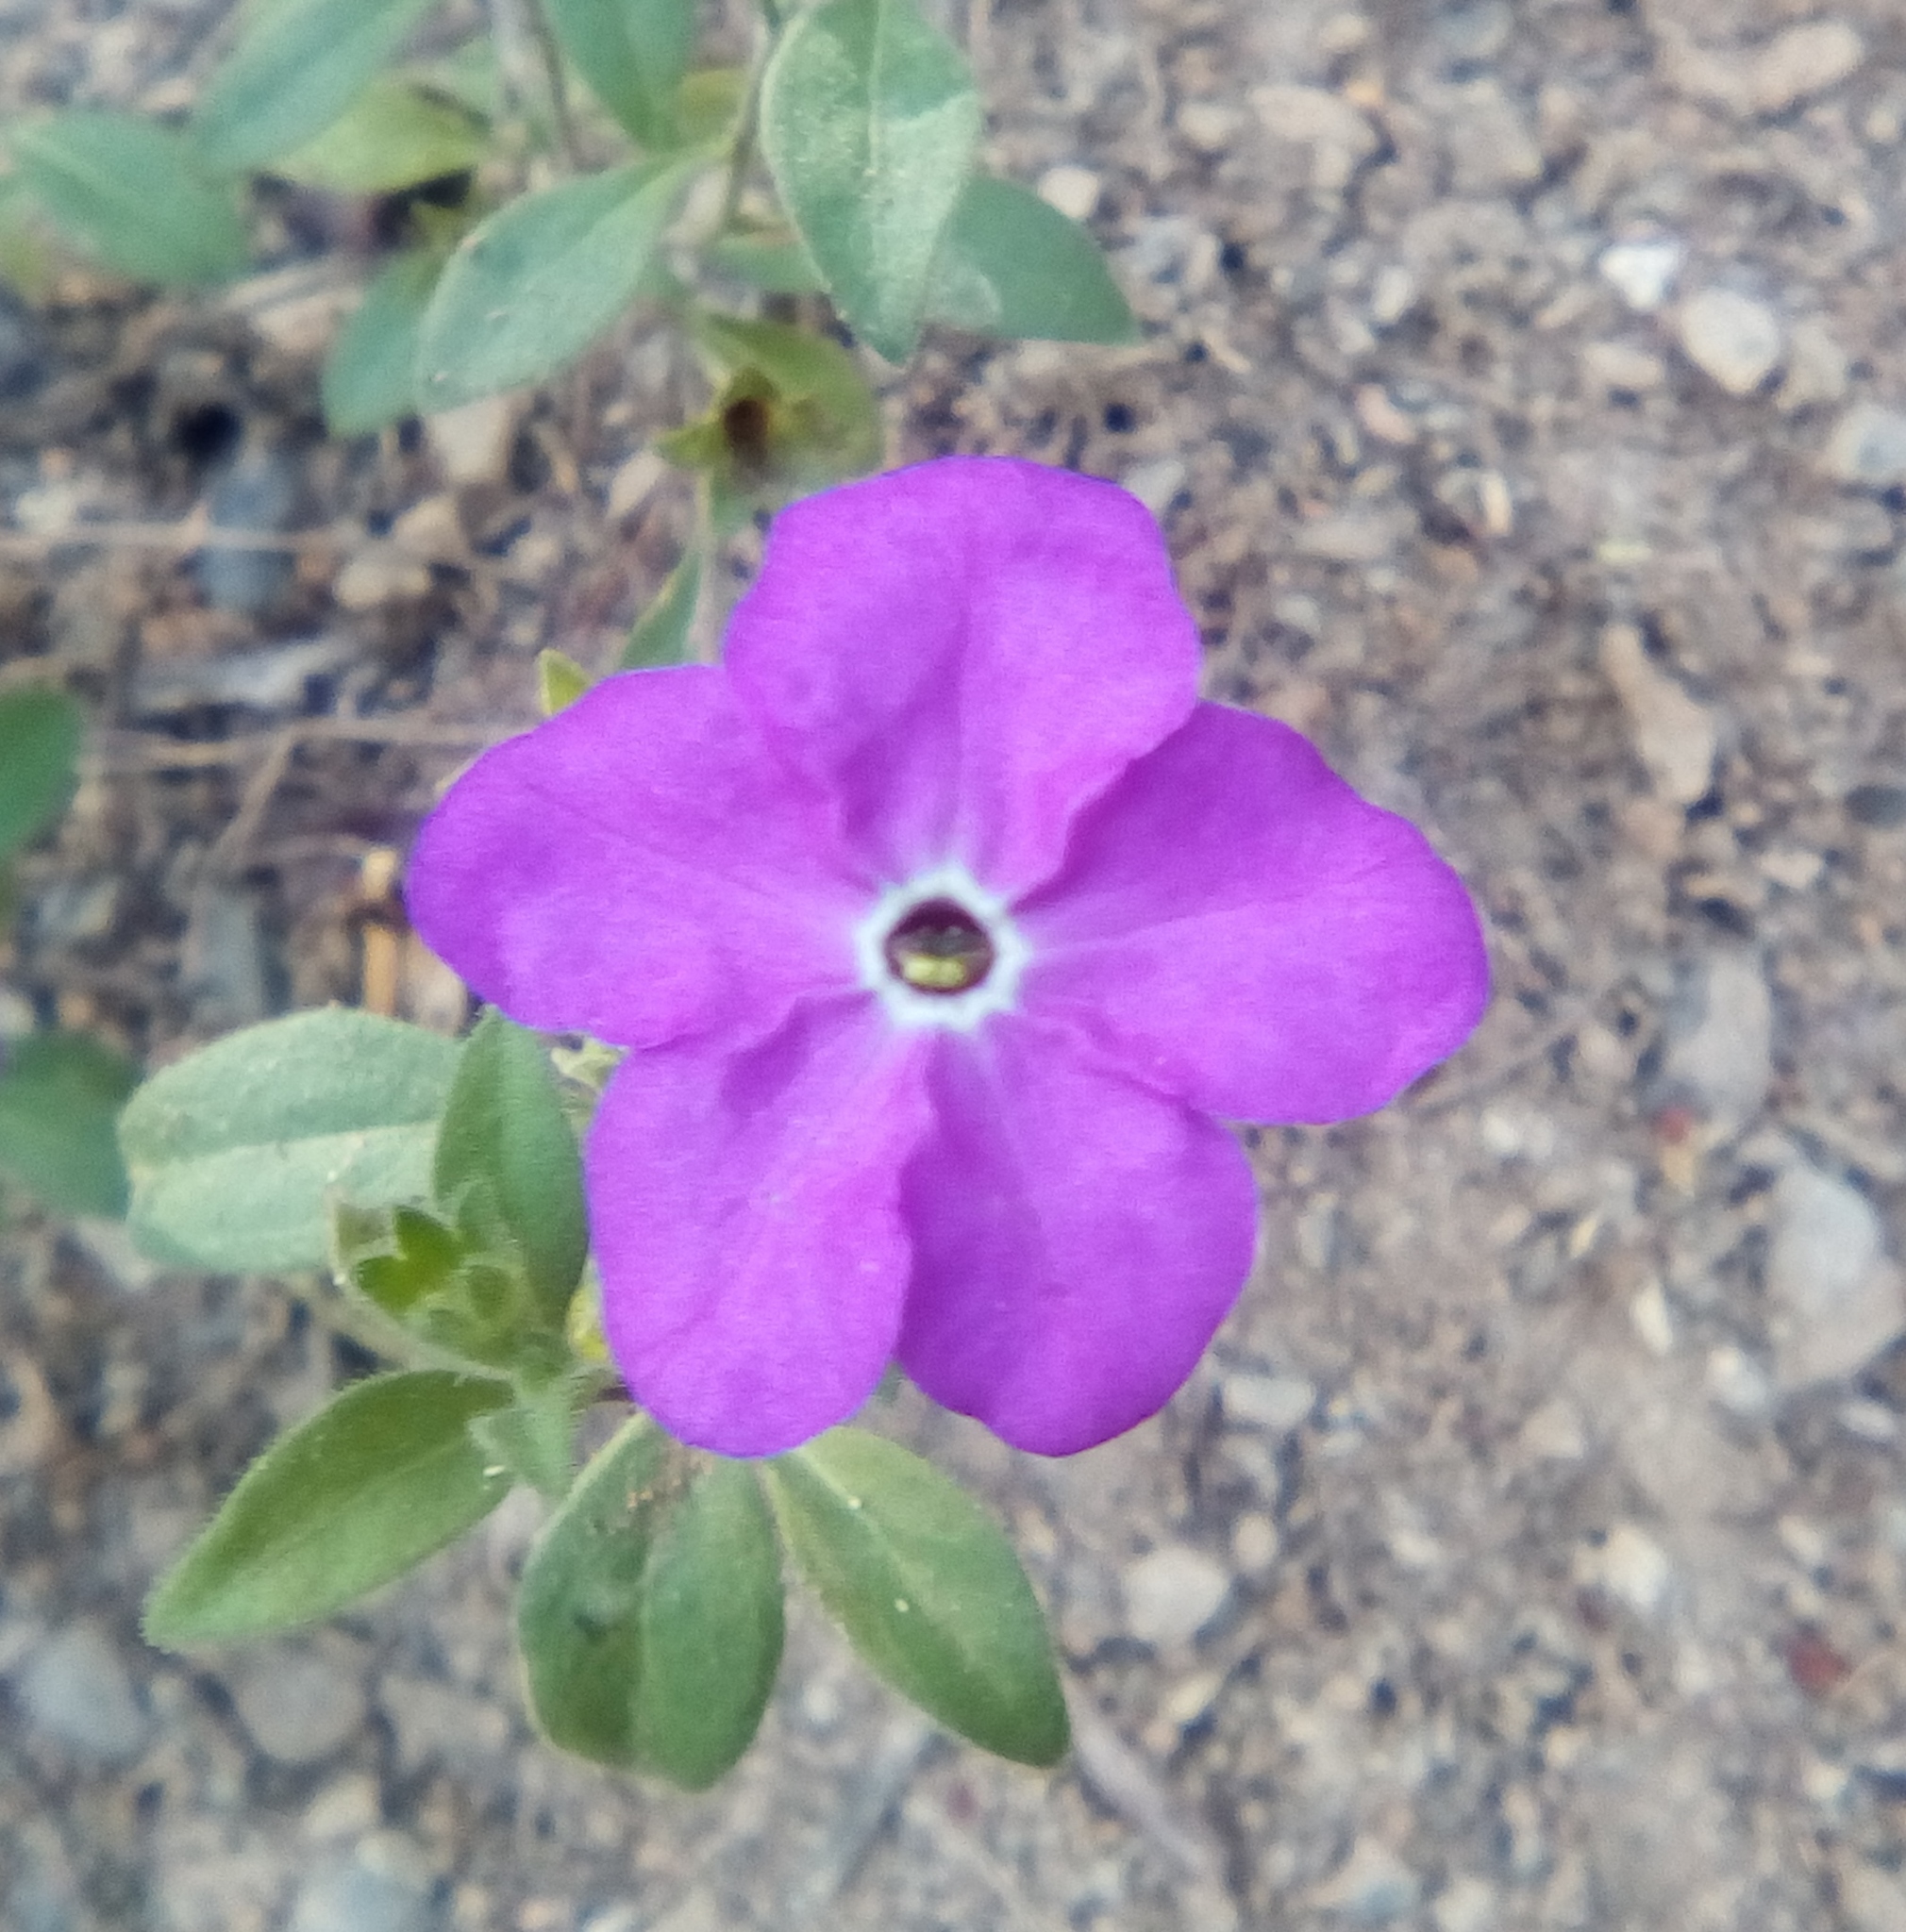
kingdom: Plantae
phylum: Tracheophyta
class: Magnoliopsida
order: Solanales
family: Solanaceae
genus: Hunzikeria
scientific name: Hunzikeria texana
